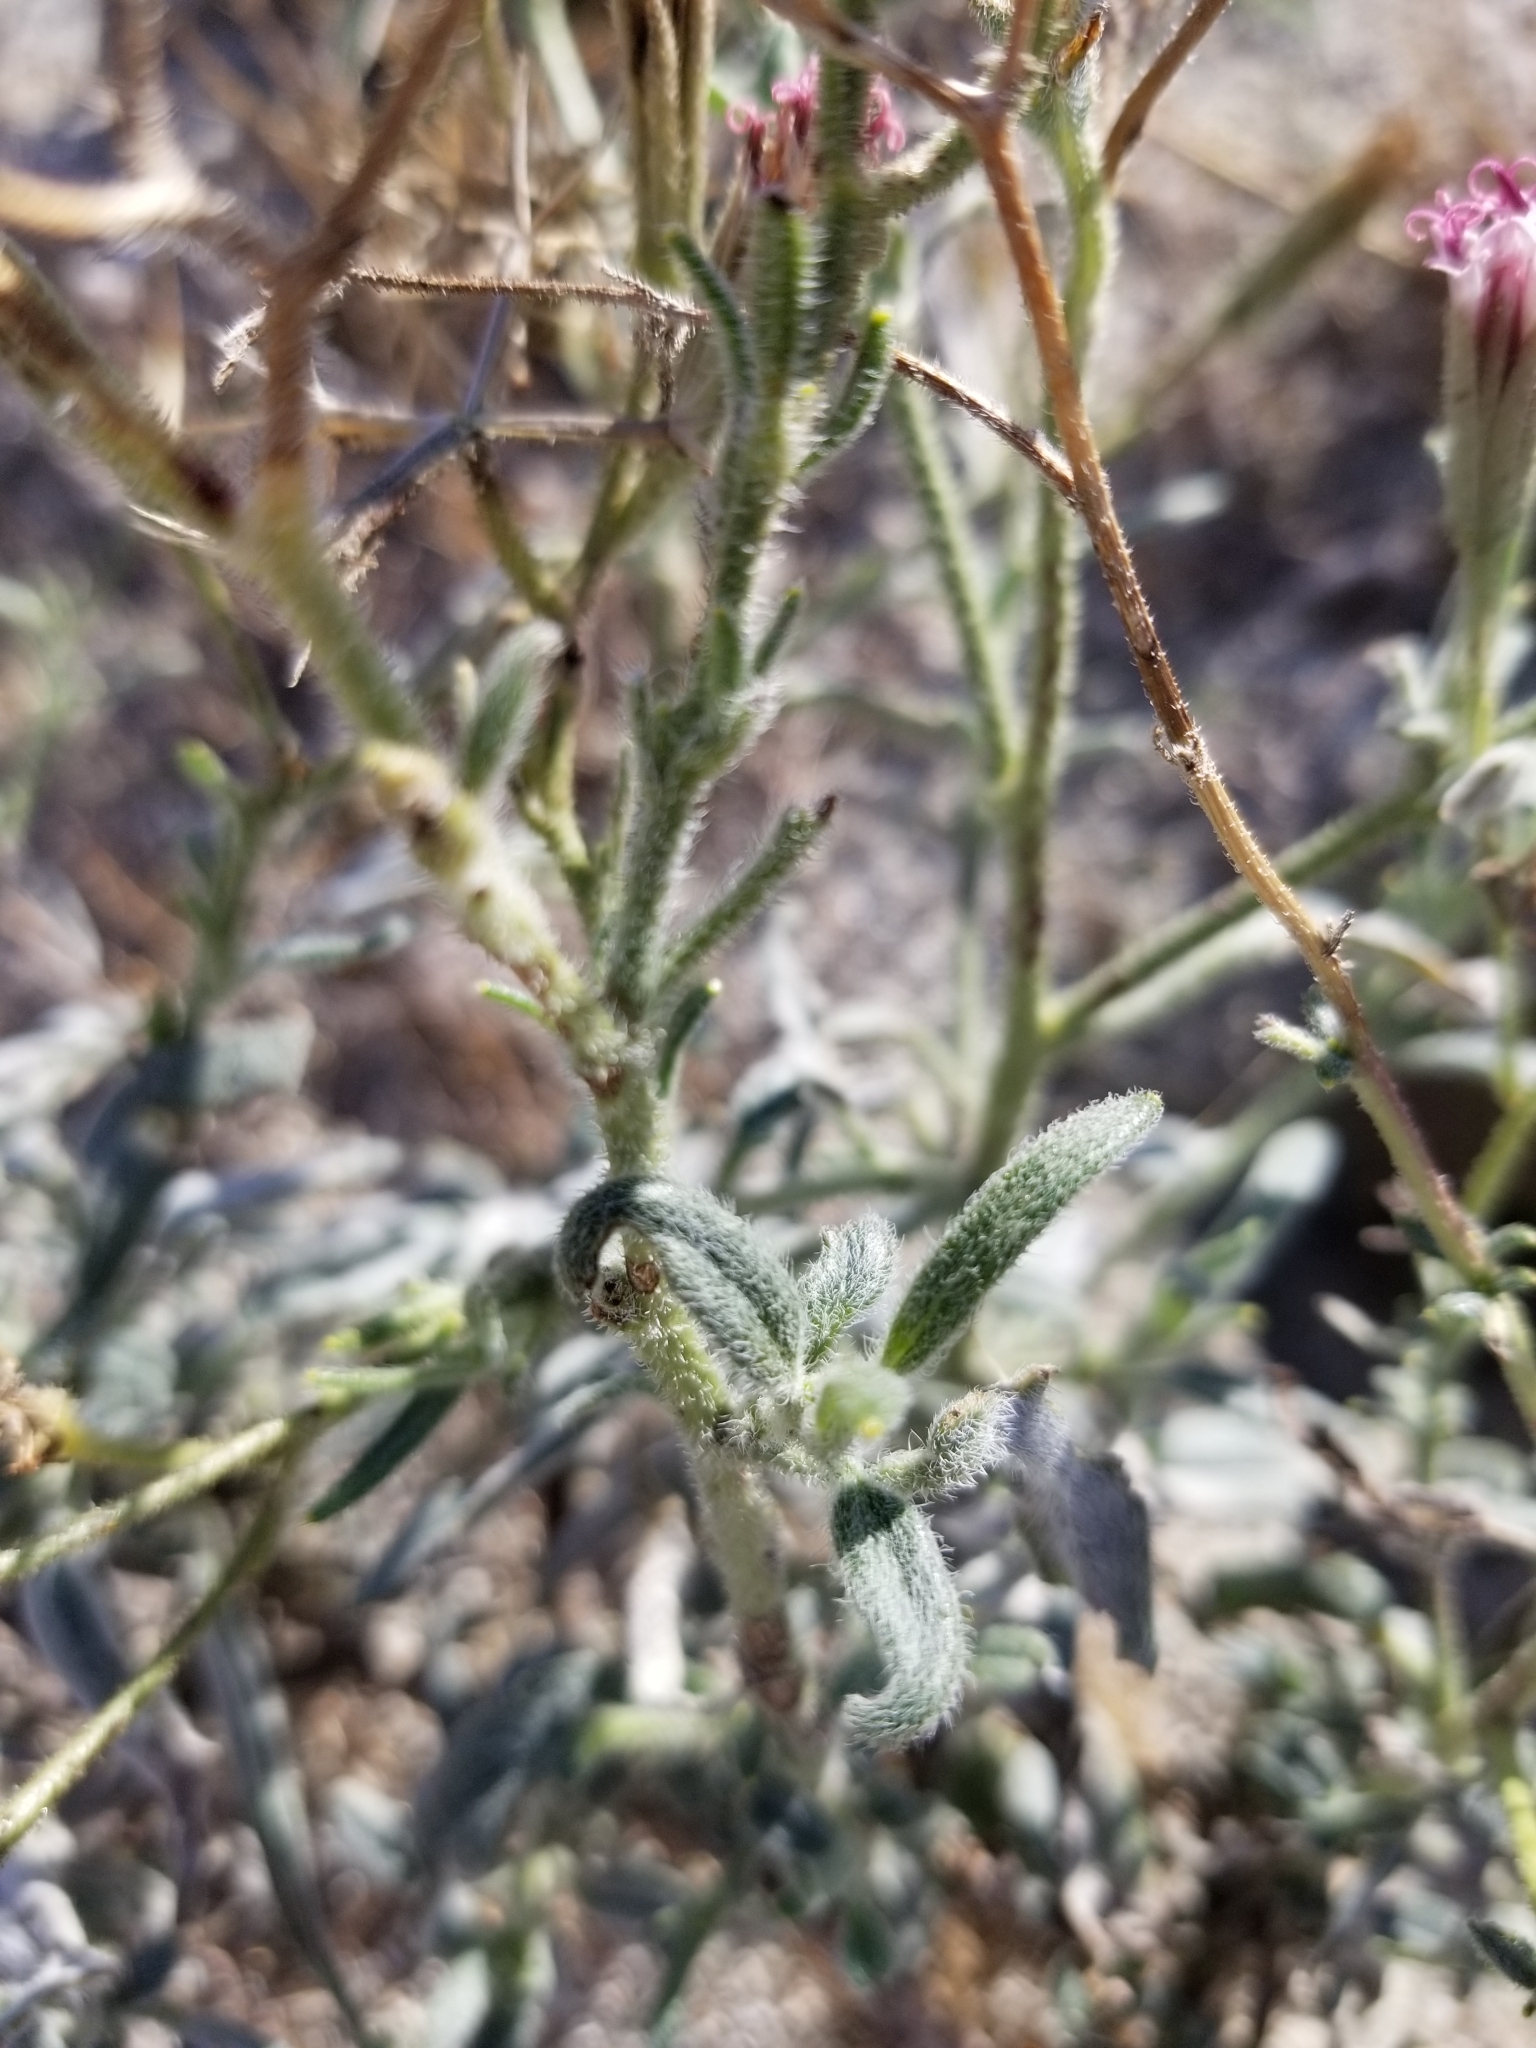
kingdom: Plantae
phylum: Tracheophyta
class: Magnoliopsida
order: Asterales
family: Asteraceae
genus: Palafoxia
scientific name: Palafoxia arida
